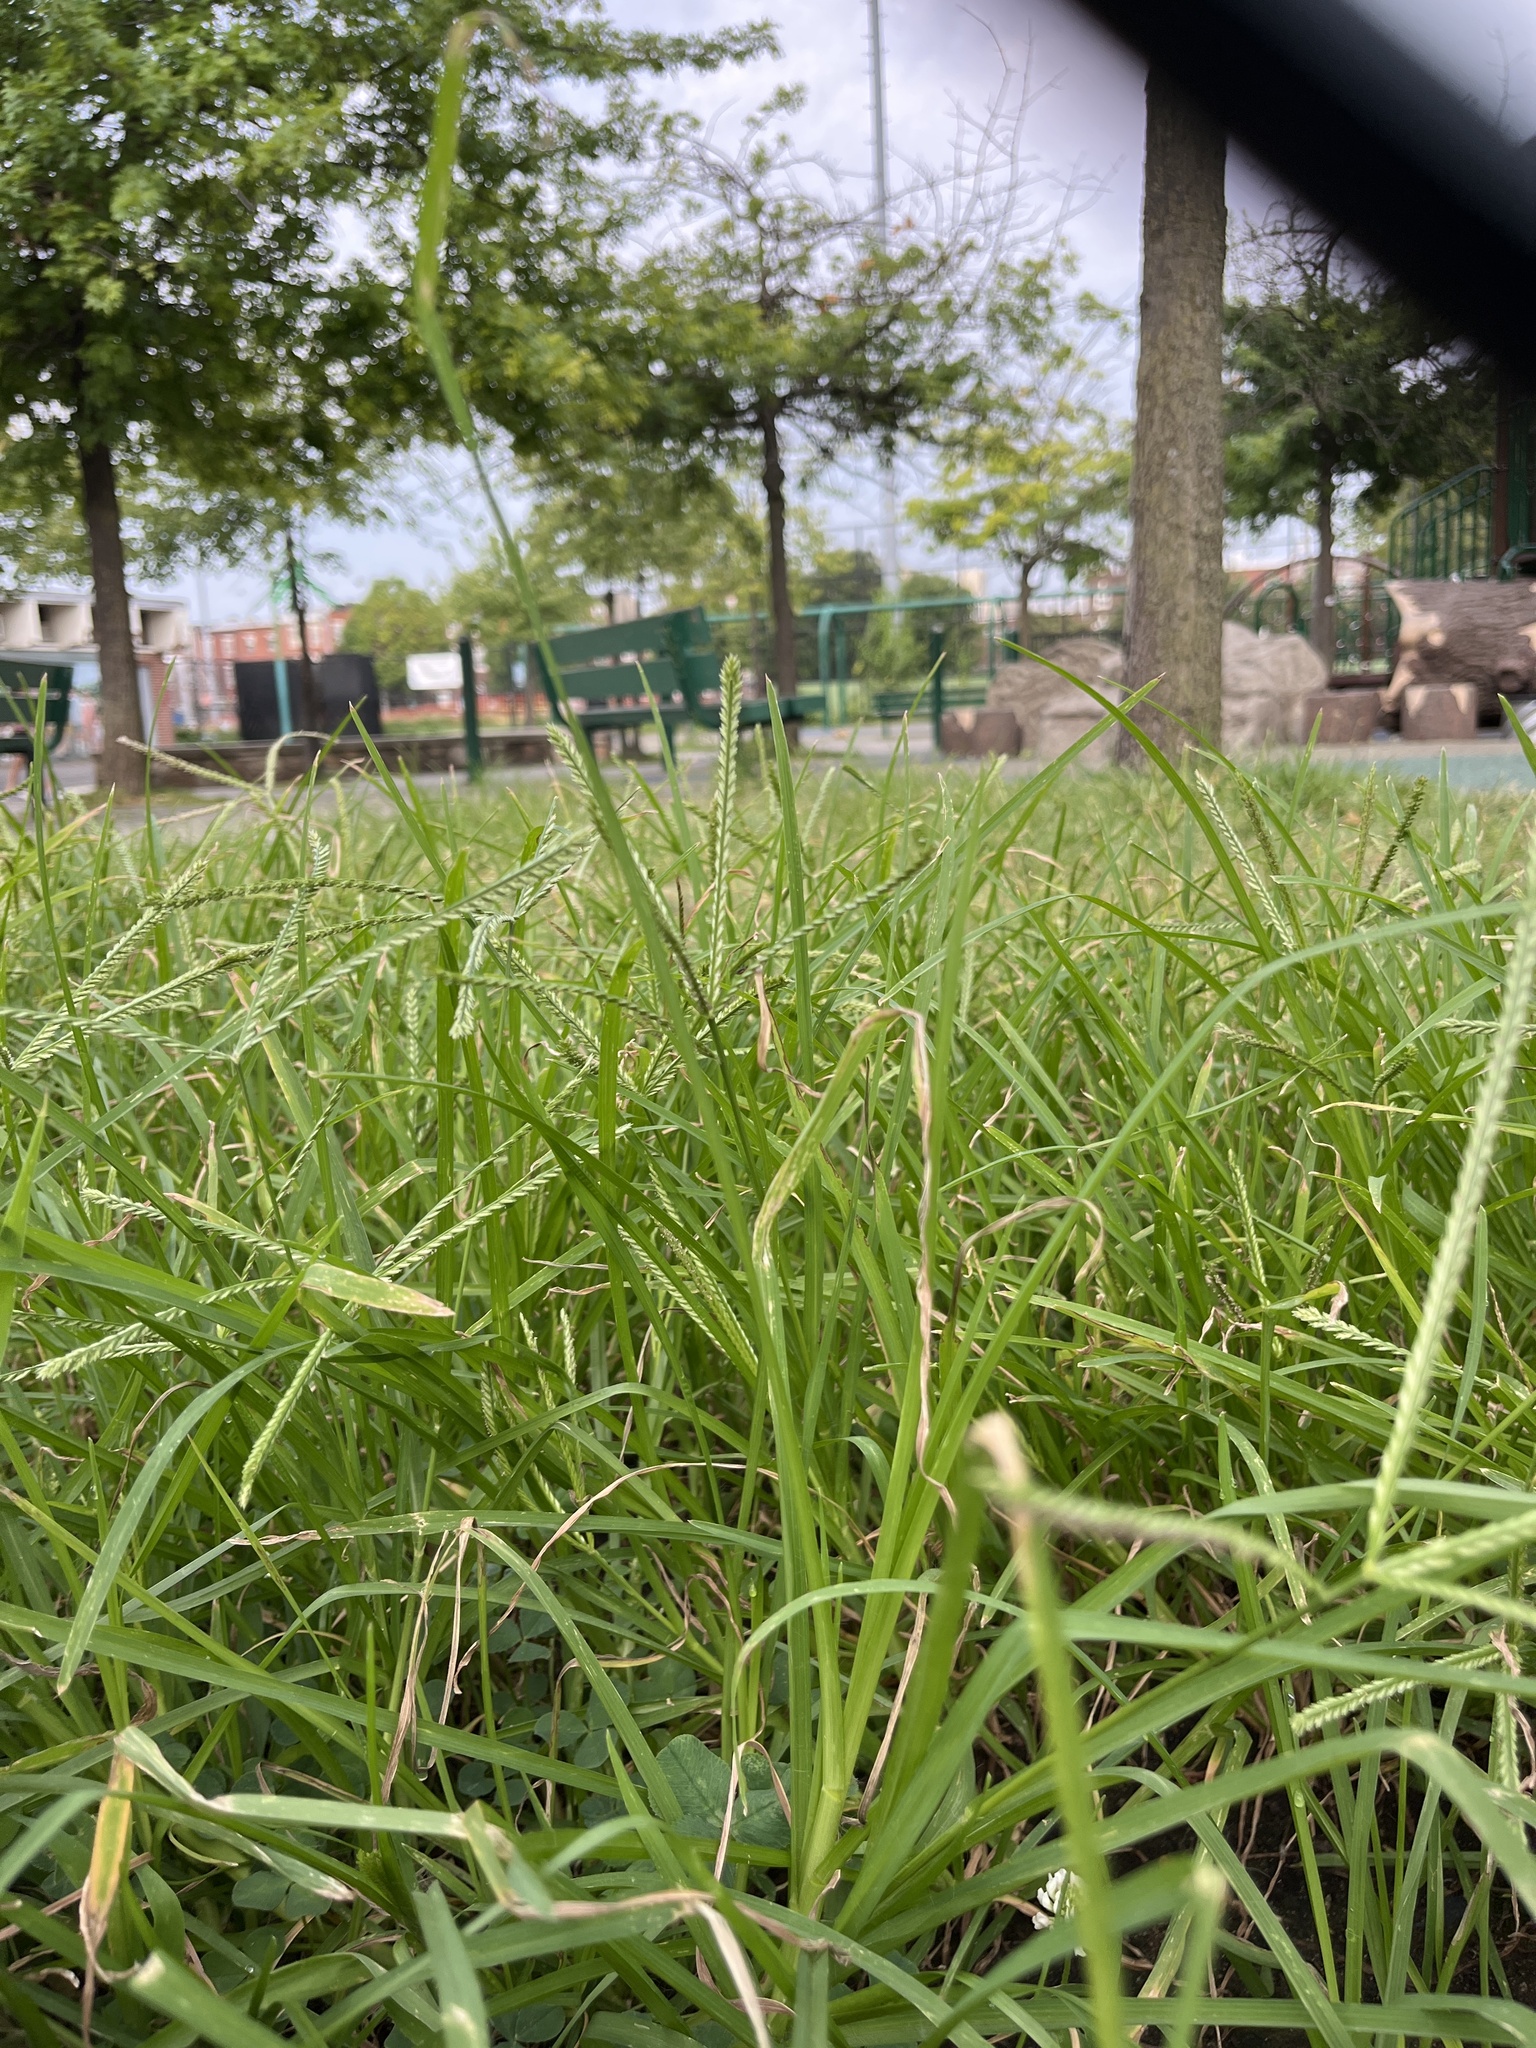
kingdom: Plantae
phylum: Tracheophyta
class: Liliopsida
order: Poales
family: Poaceae
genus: Eleusine
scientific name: Eleusine indica
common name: Yard-grass
